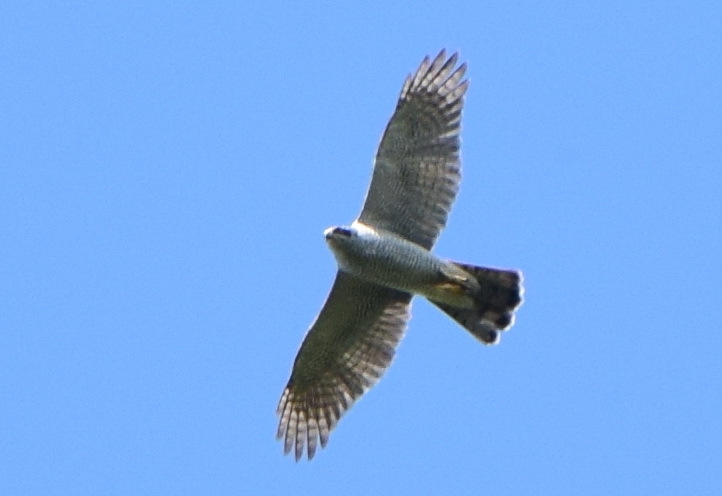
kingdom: Animalia
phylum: Chordata
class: Aves
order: Accipitriformes
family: Accipitridae
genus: Accipiter
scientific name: Accipiter gentilis
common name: Northern goshawk
